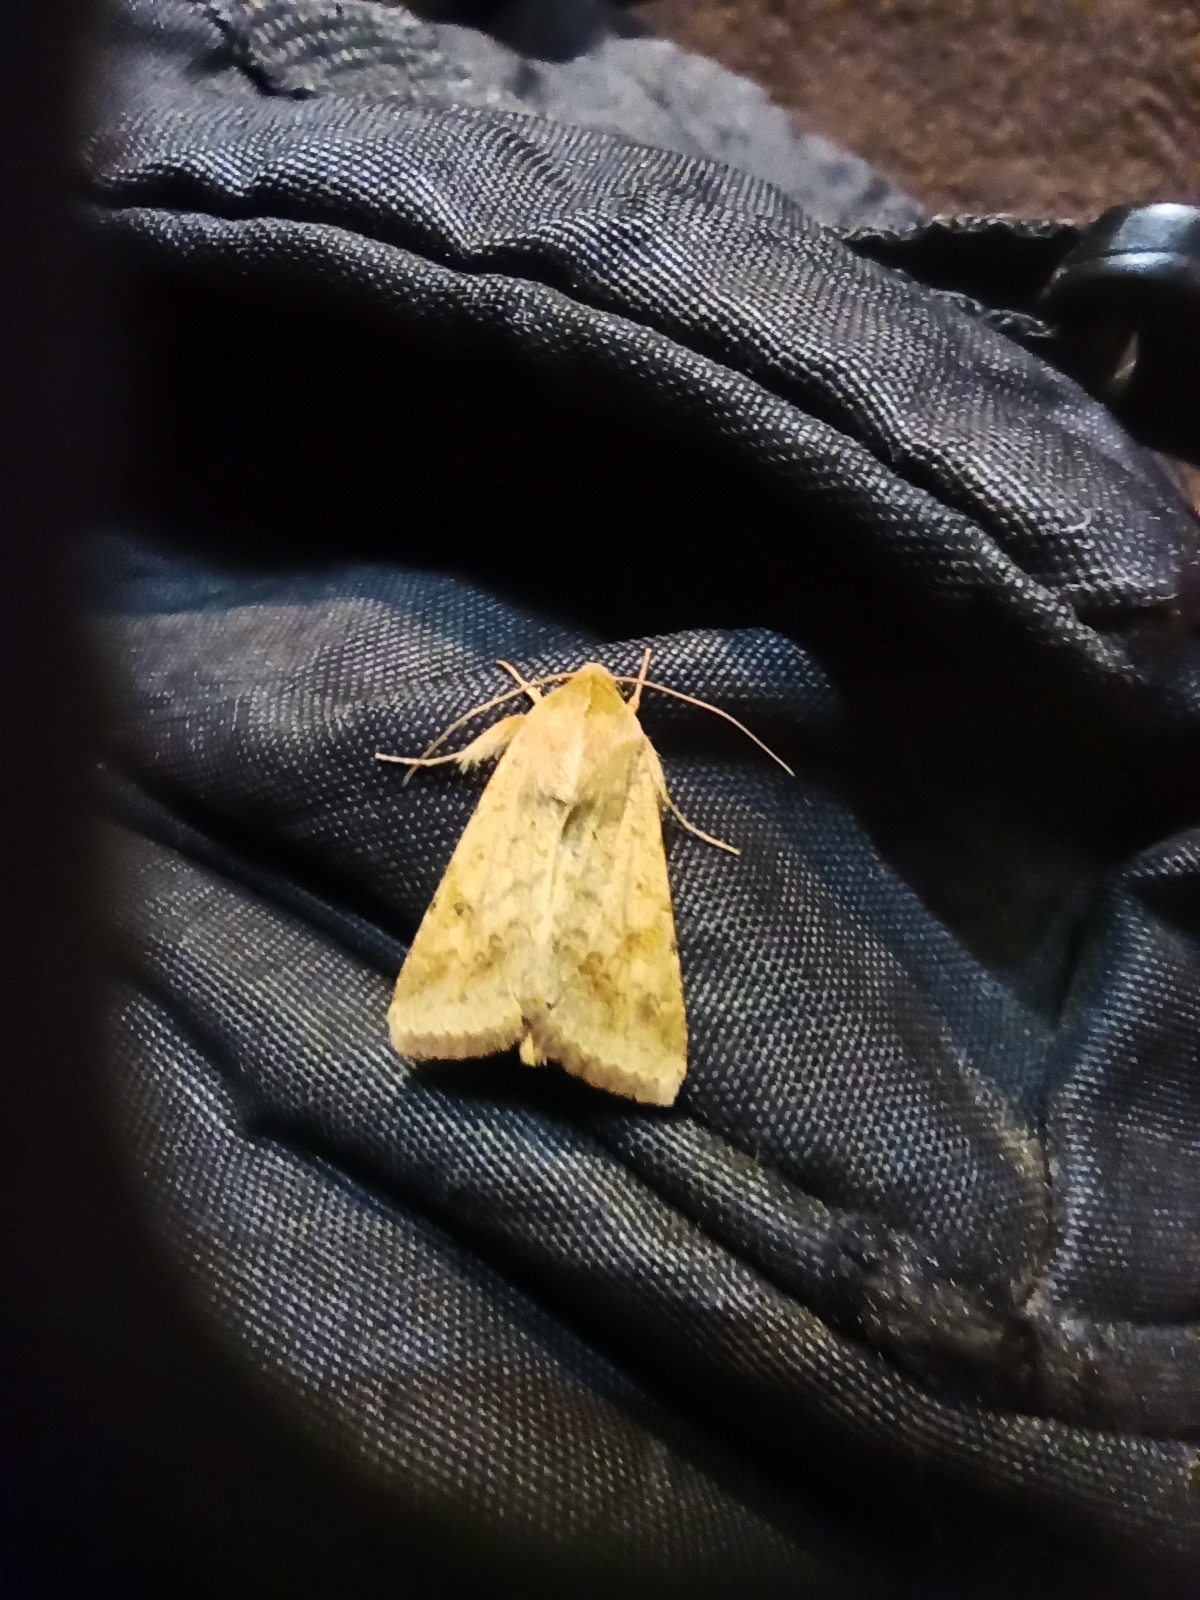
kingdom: Animalia
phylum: Arthropoda
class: Insecta
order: Lepidoptera
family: Noctuidae
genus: Helicoverpa
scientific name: Helicoverpa armigera
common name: Cotton bollworm
